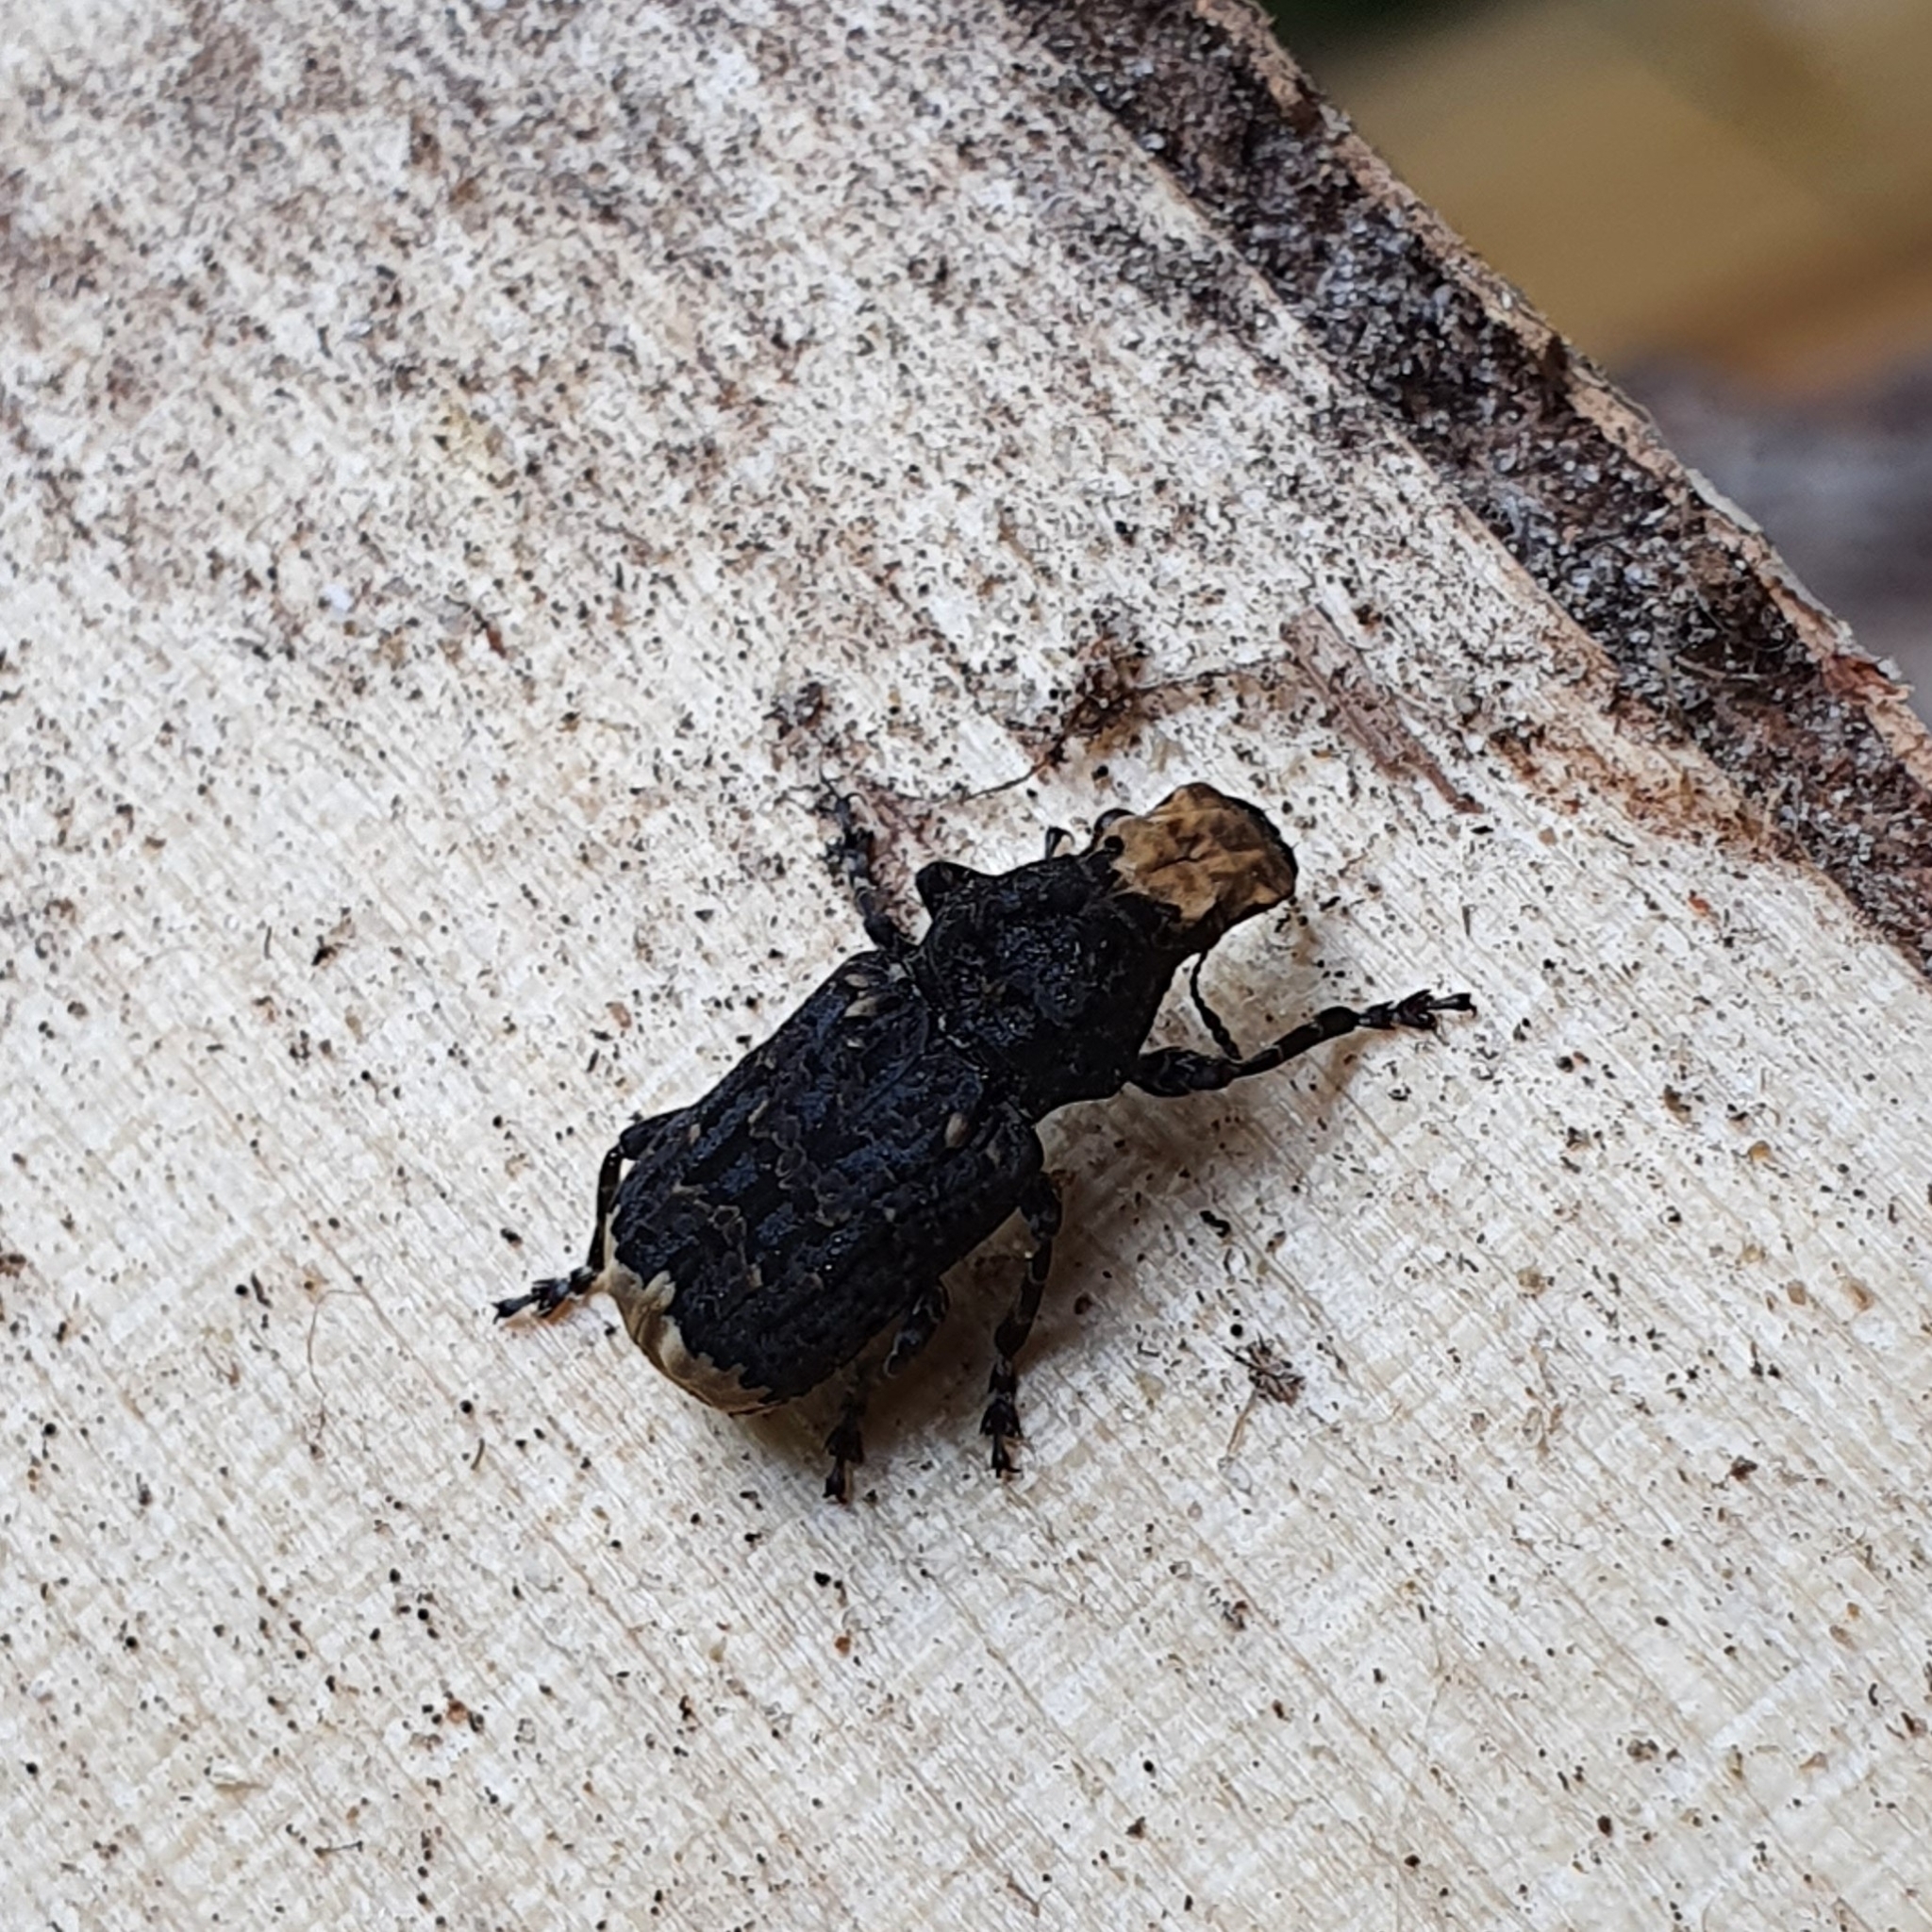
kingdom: Animalia
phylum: Arthropoda
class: Insecta
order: Coleoptera
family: Anthribidae
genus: Platyrhinus
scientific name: Platyrhinus resinosus
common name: Cramp-ball fungus weevil
